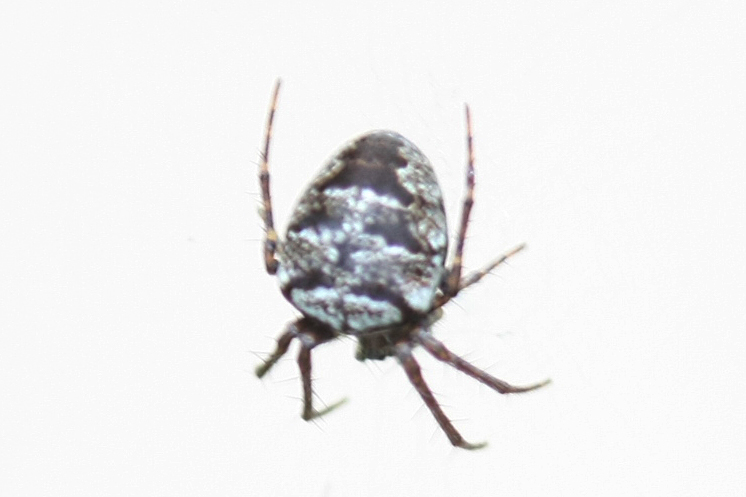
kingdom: Animalia
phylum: Arthropoda
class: Arachnida
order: Araneae
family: Araneidae
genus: Zilla
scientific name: Zilla diodia
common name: Zilla diodia
